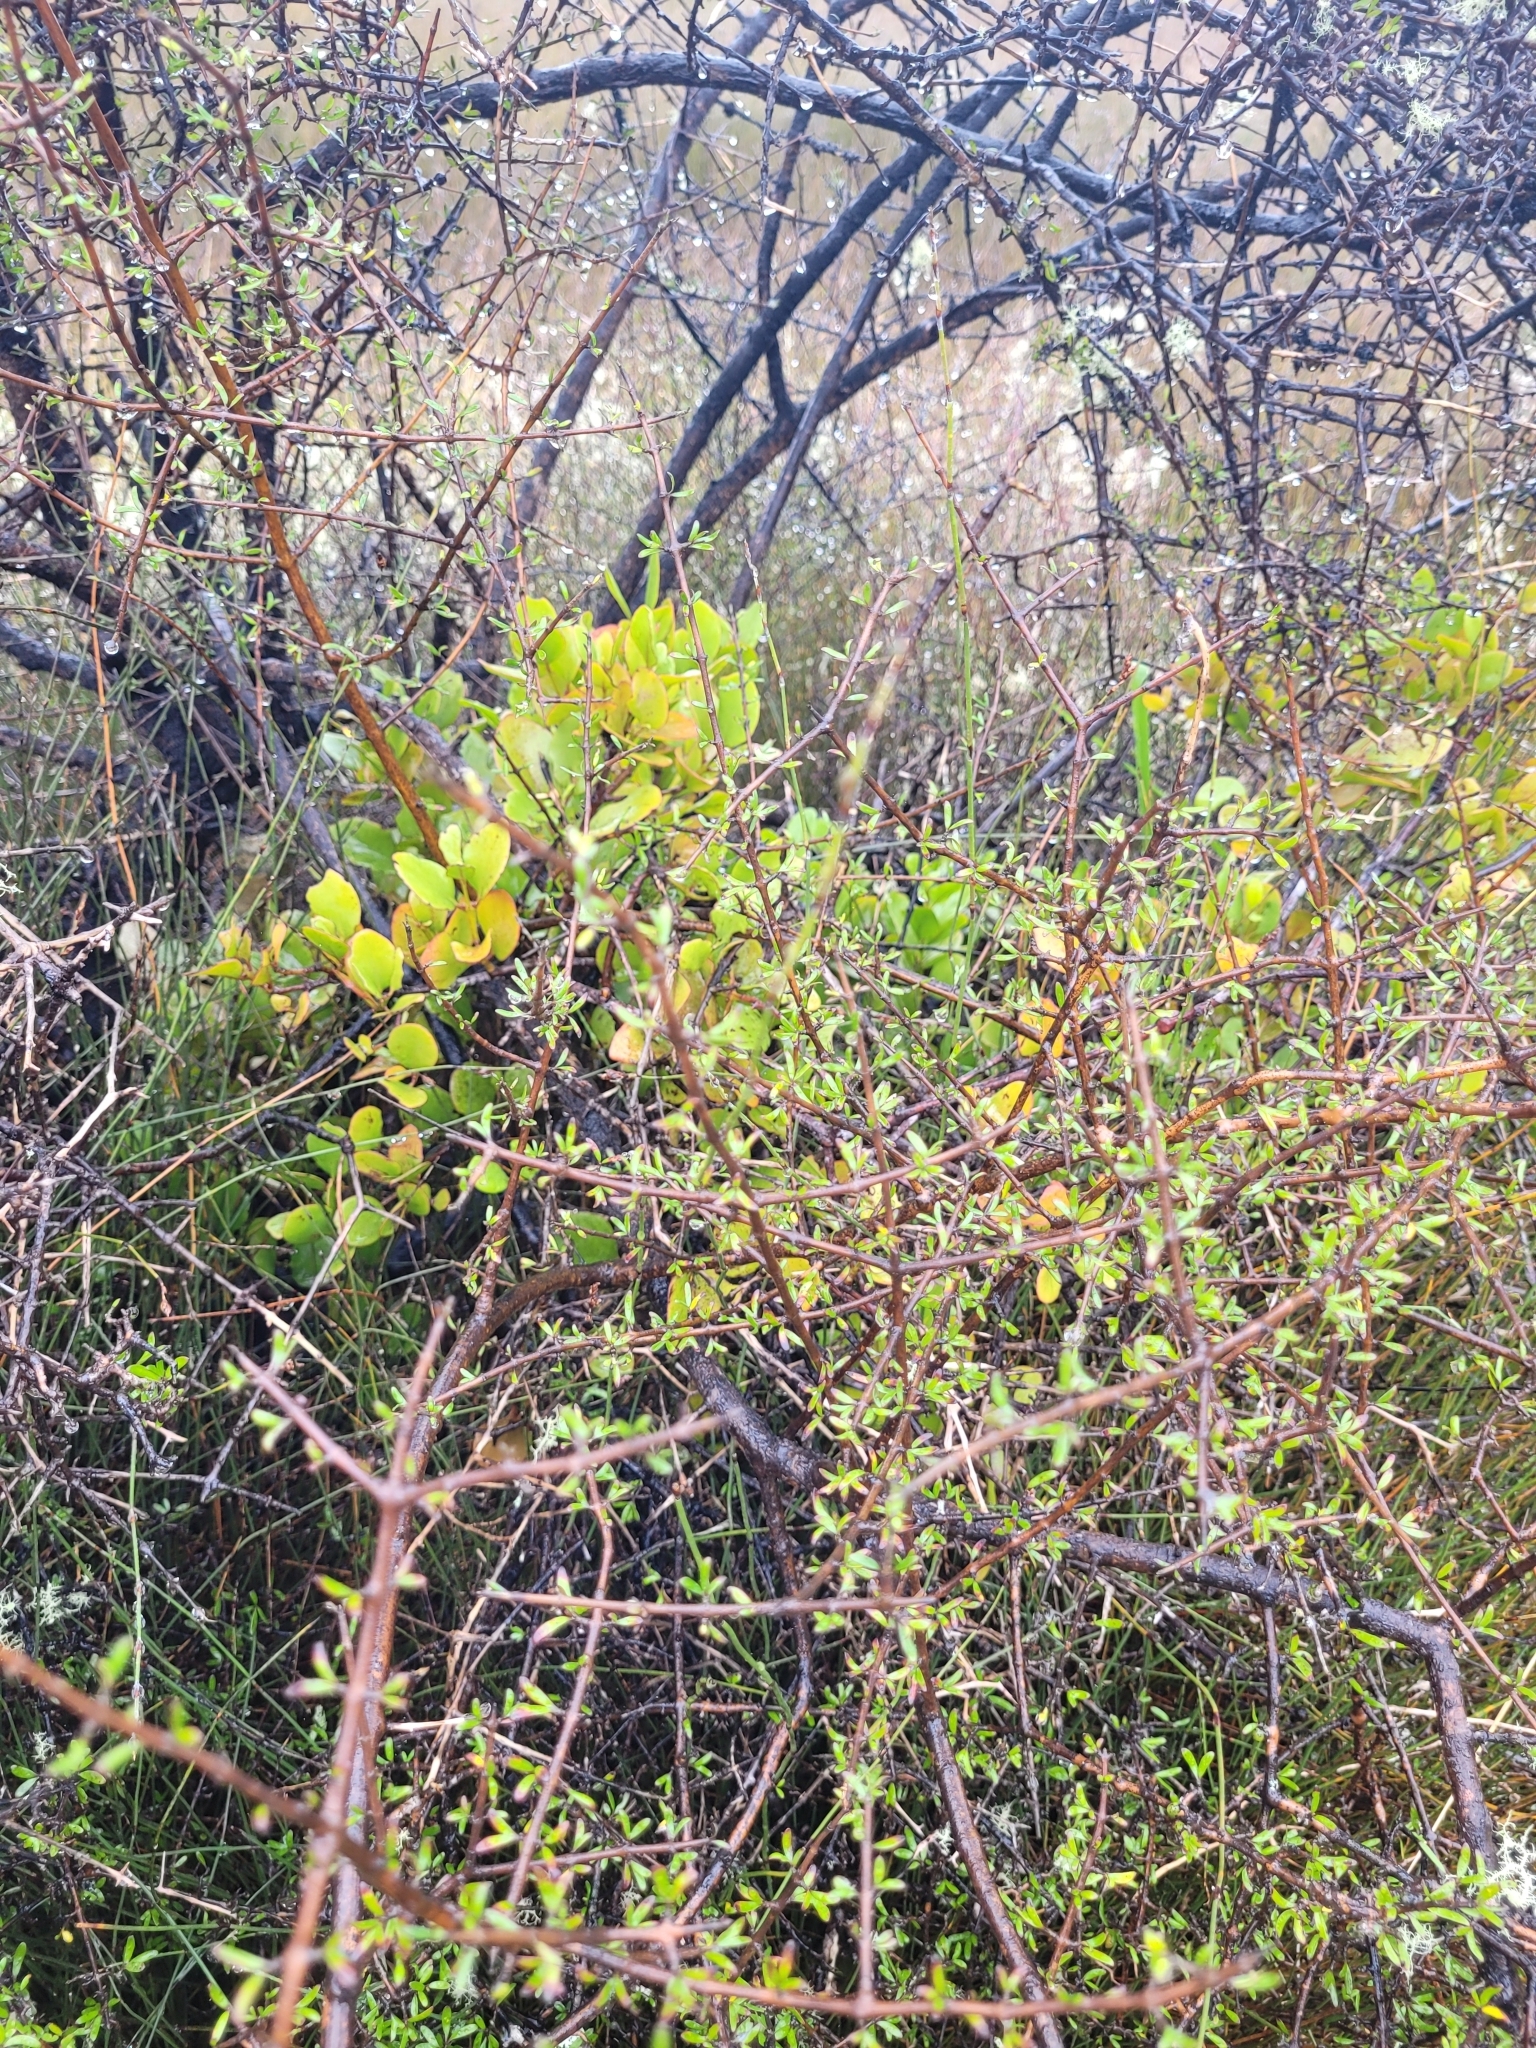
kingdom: Plantae
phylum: Tracheophyta
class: Magnoliopsida
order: Santalales
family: Loranthaceae
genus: Ileostylus
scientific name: Ileostylus micranthus
